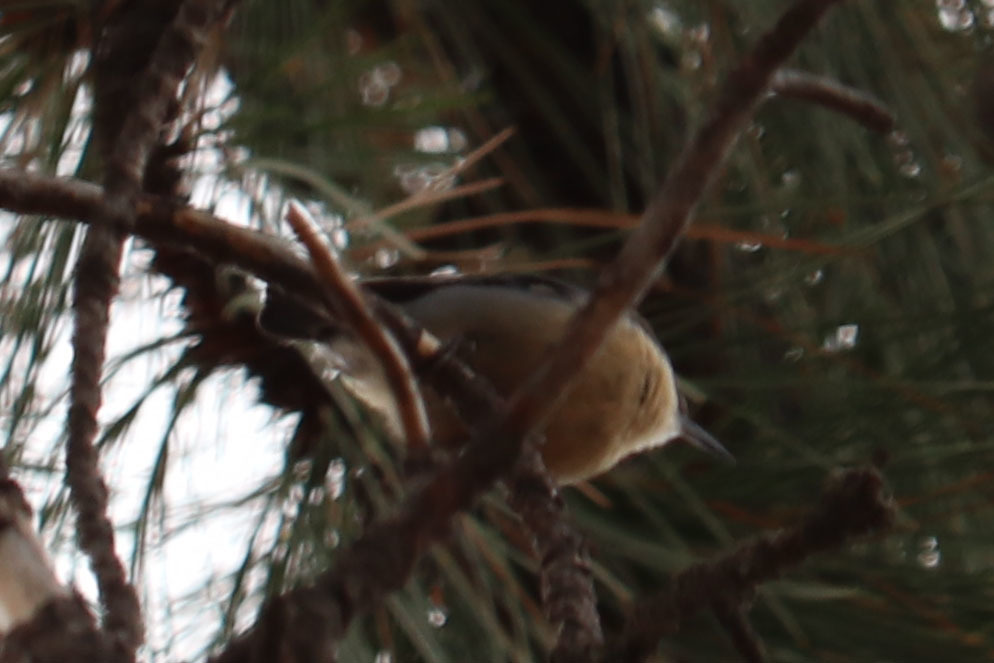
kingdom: Animalia
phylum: Chordata
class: Aves
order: Passeriformes
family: Sittidae
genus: Sitta
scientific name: Sitta pygmaea
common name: Pygmy nuthatch
